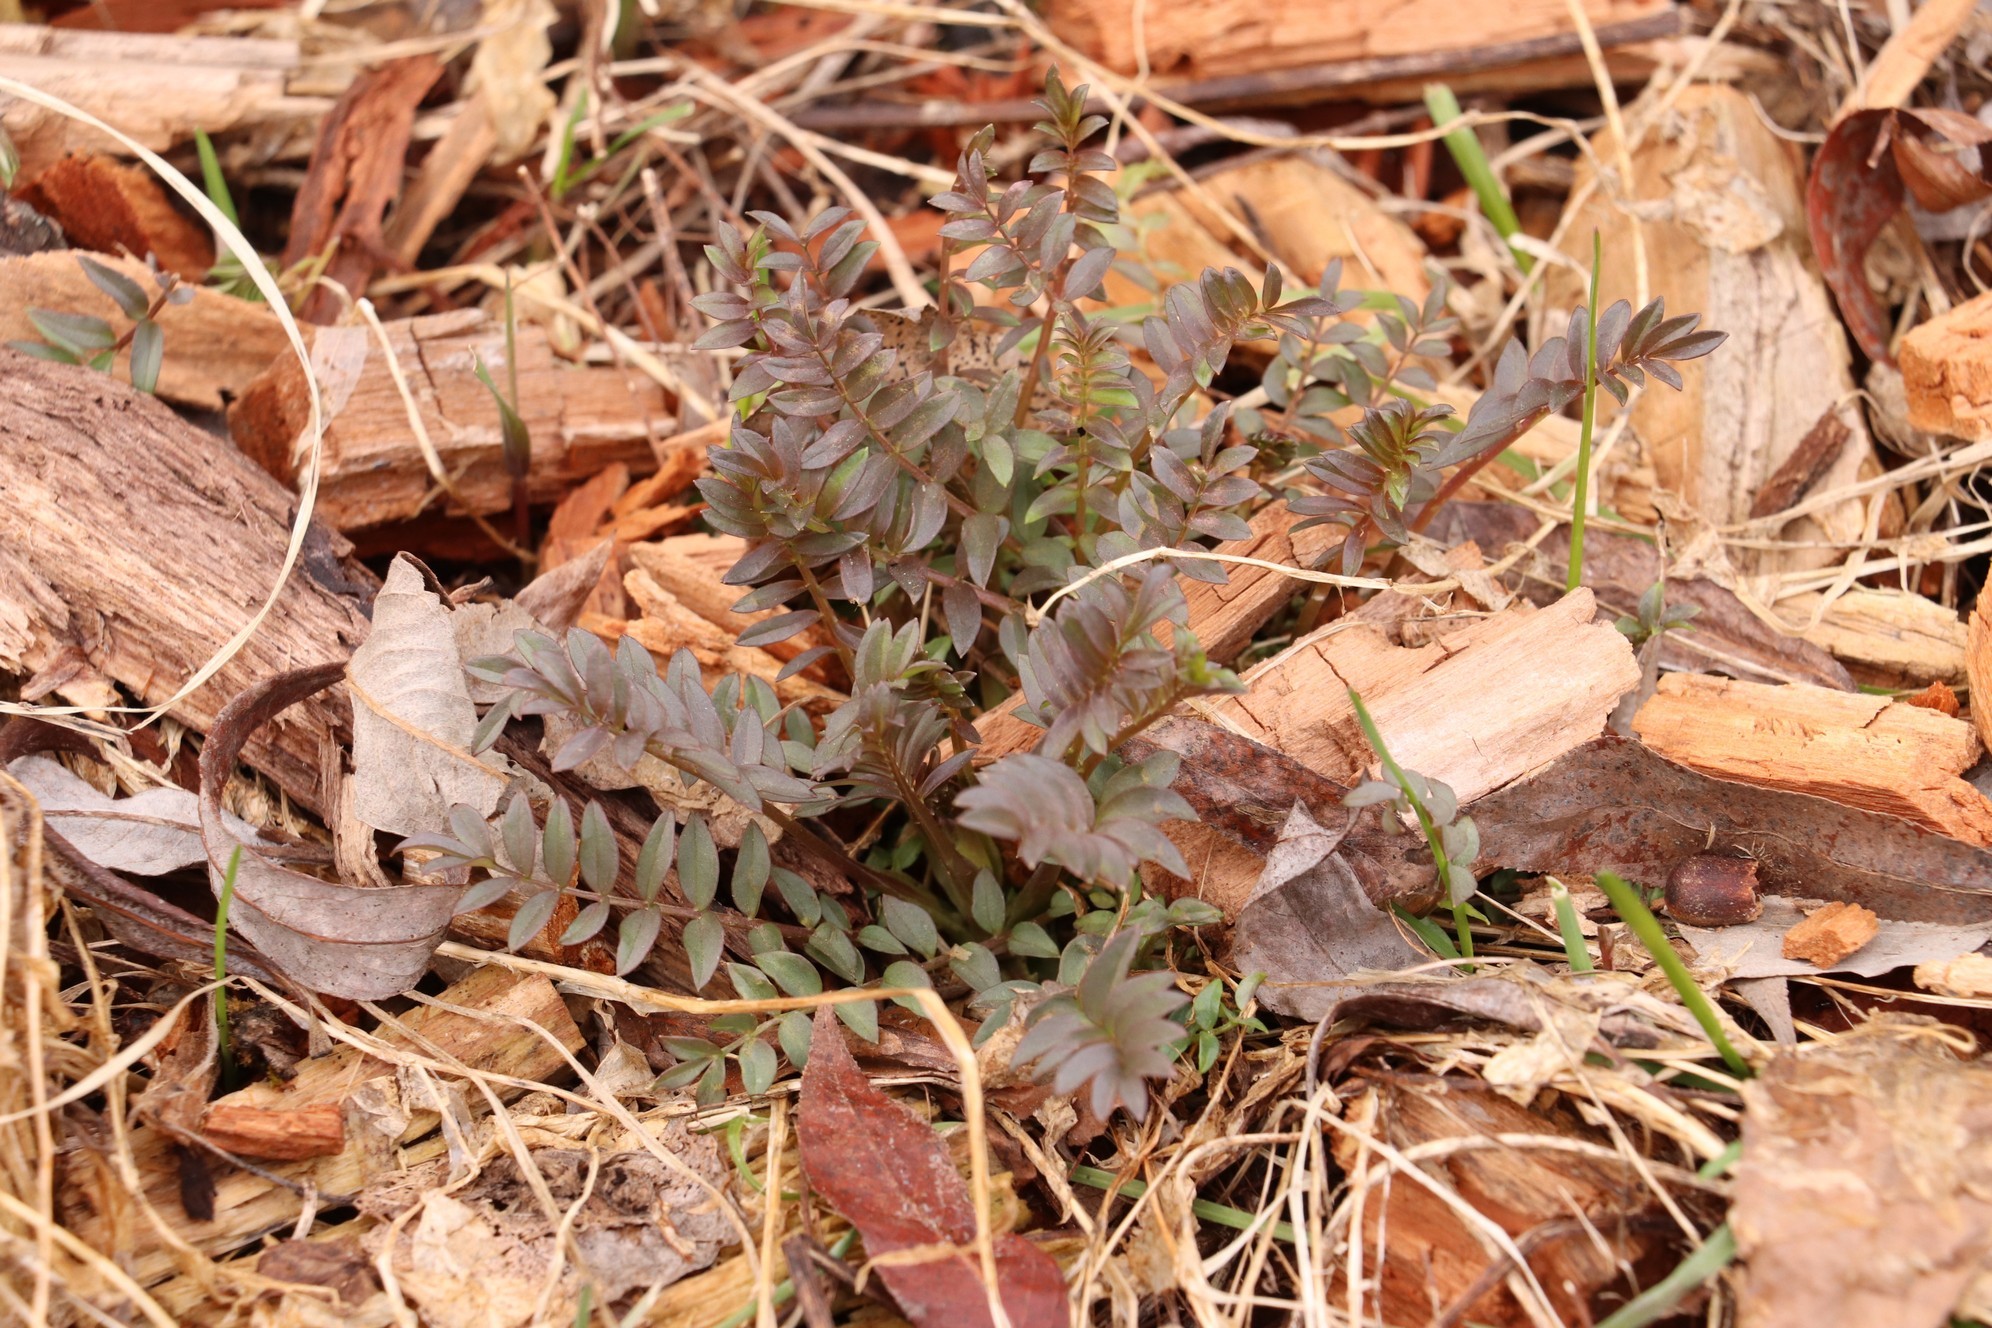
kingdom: Plantae
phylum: Tracheophyta
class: Magnoliopsida
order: Ericales
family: Polemoniaceae
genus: Polemonium
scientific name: Polemonium caeruleum
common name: Jacob's-ladder
